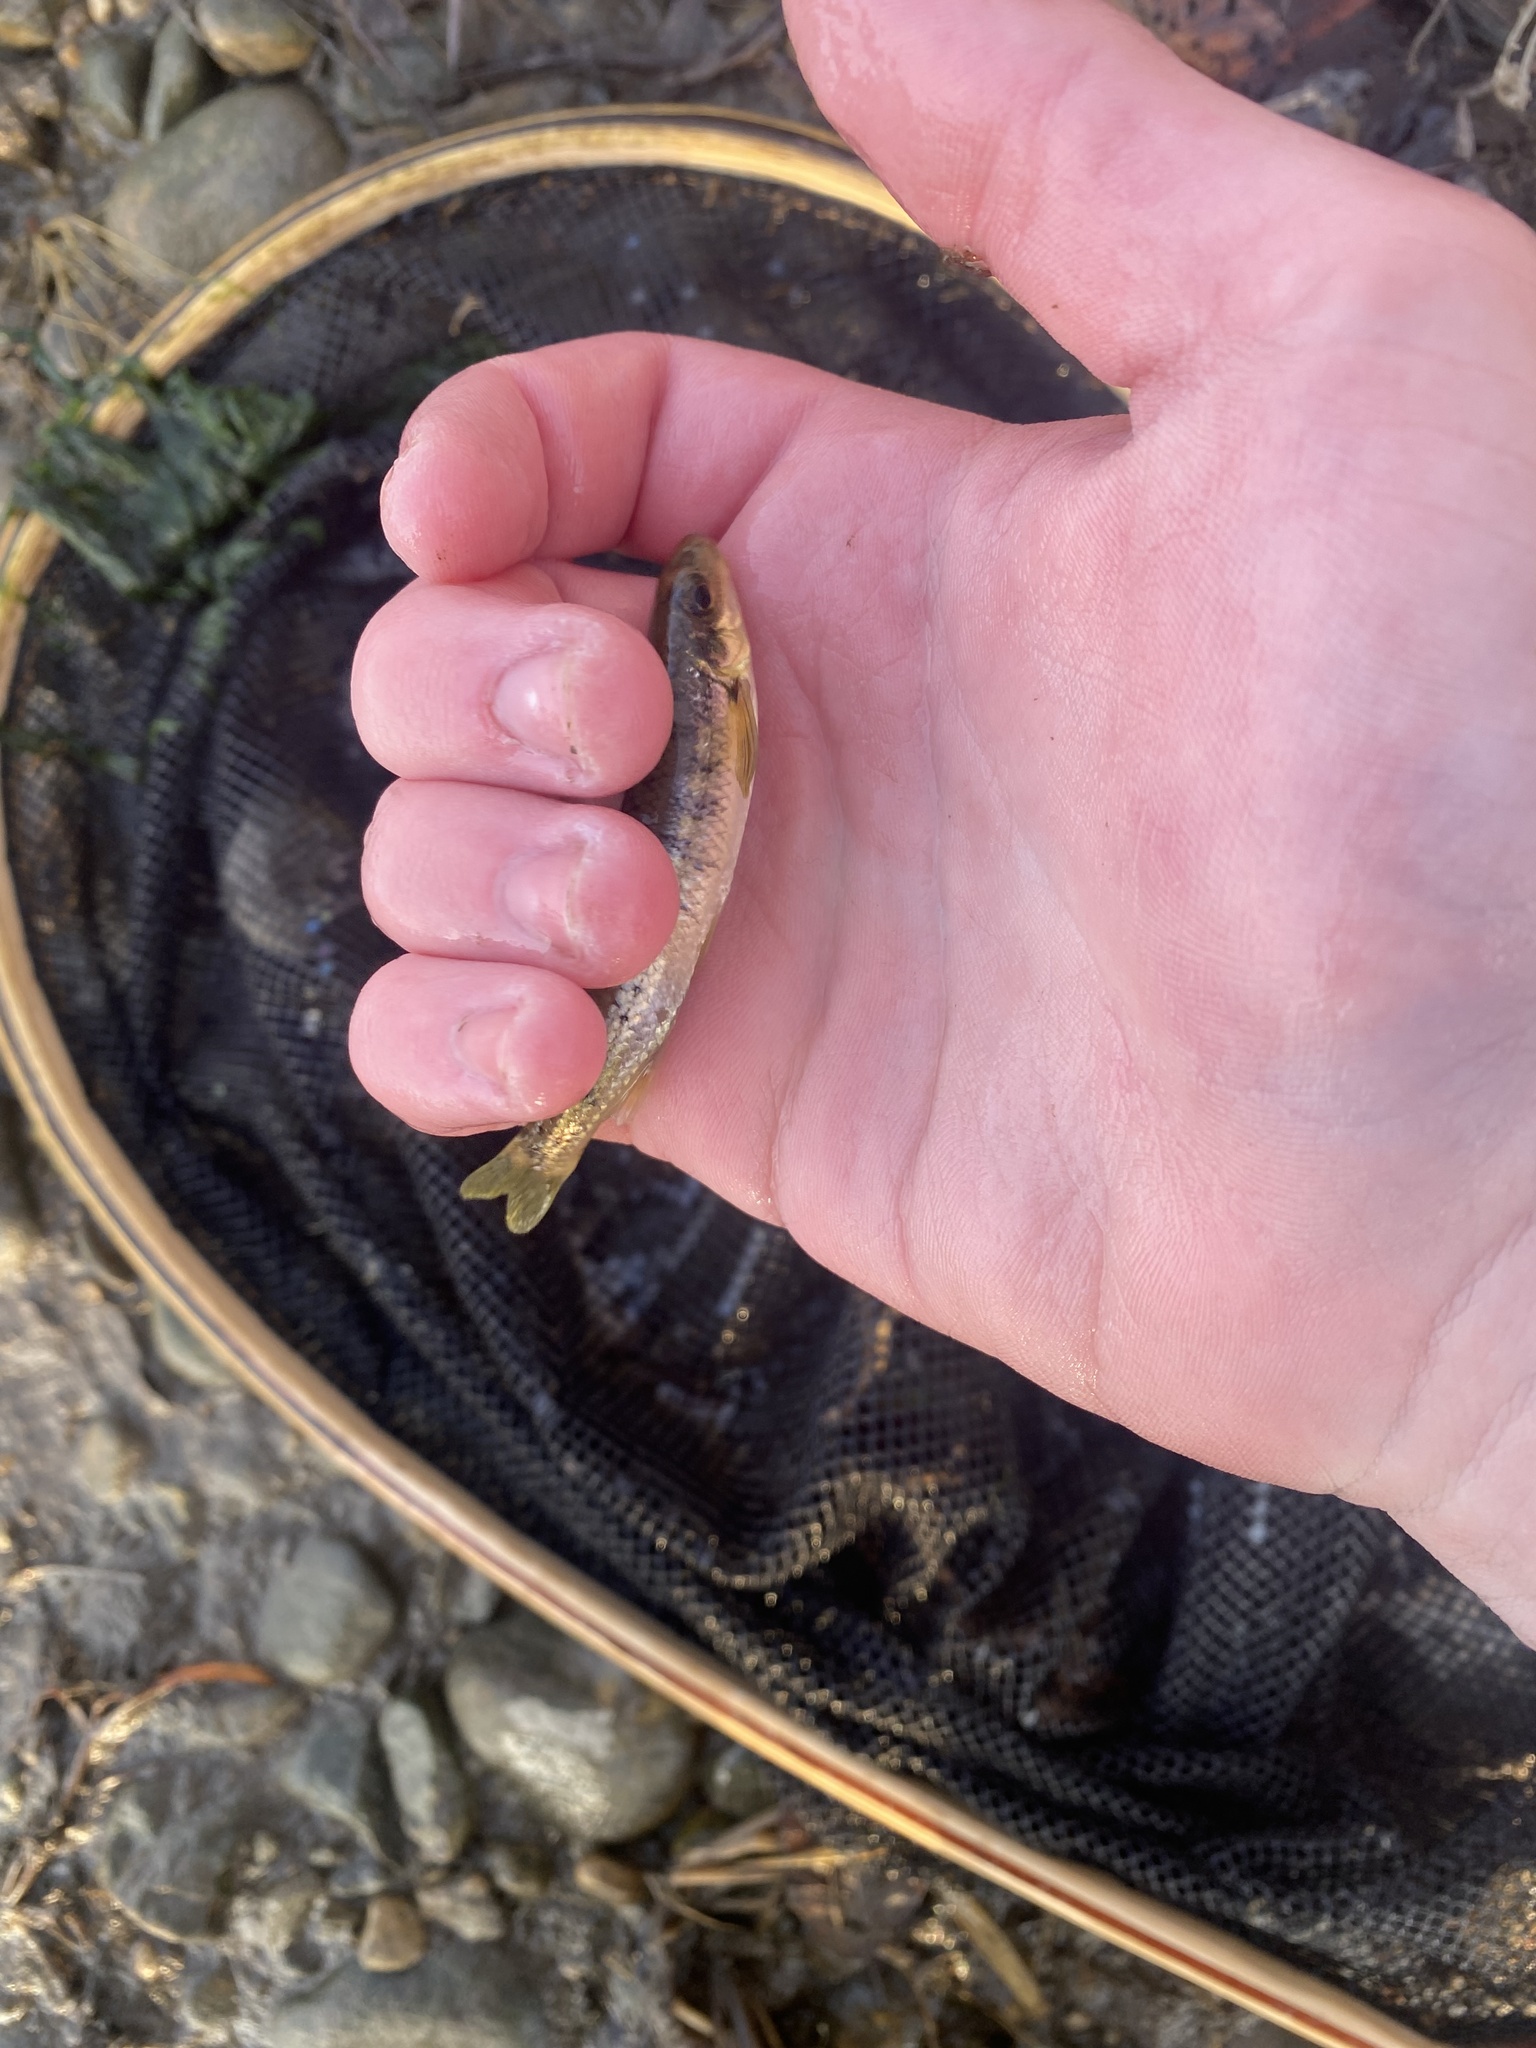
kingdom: Animalia
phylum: Chordata
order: Cypriniformes
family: Cyprinidae
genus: Erimystax
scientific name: Erimystax x-punctatus
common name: Gravel chub
